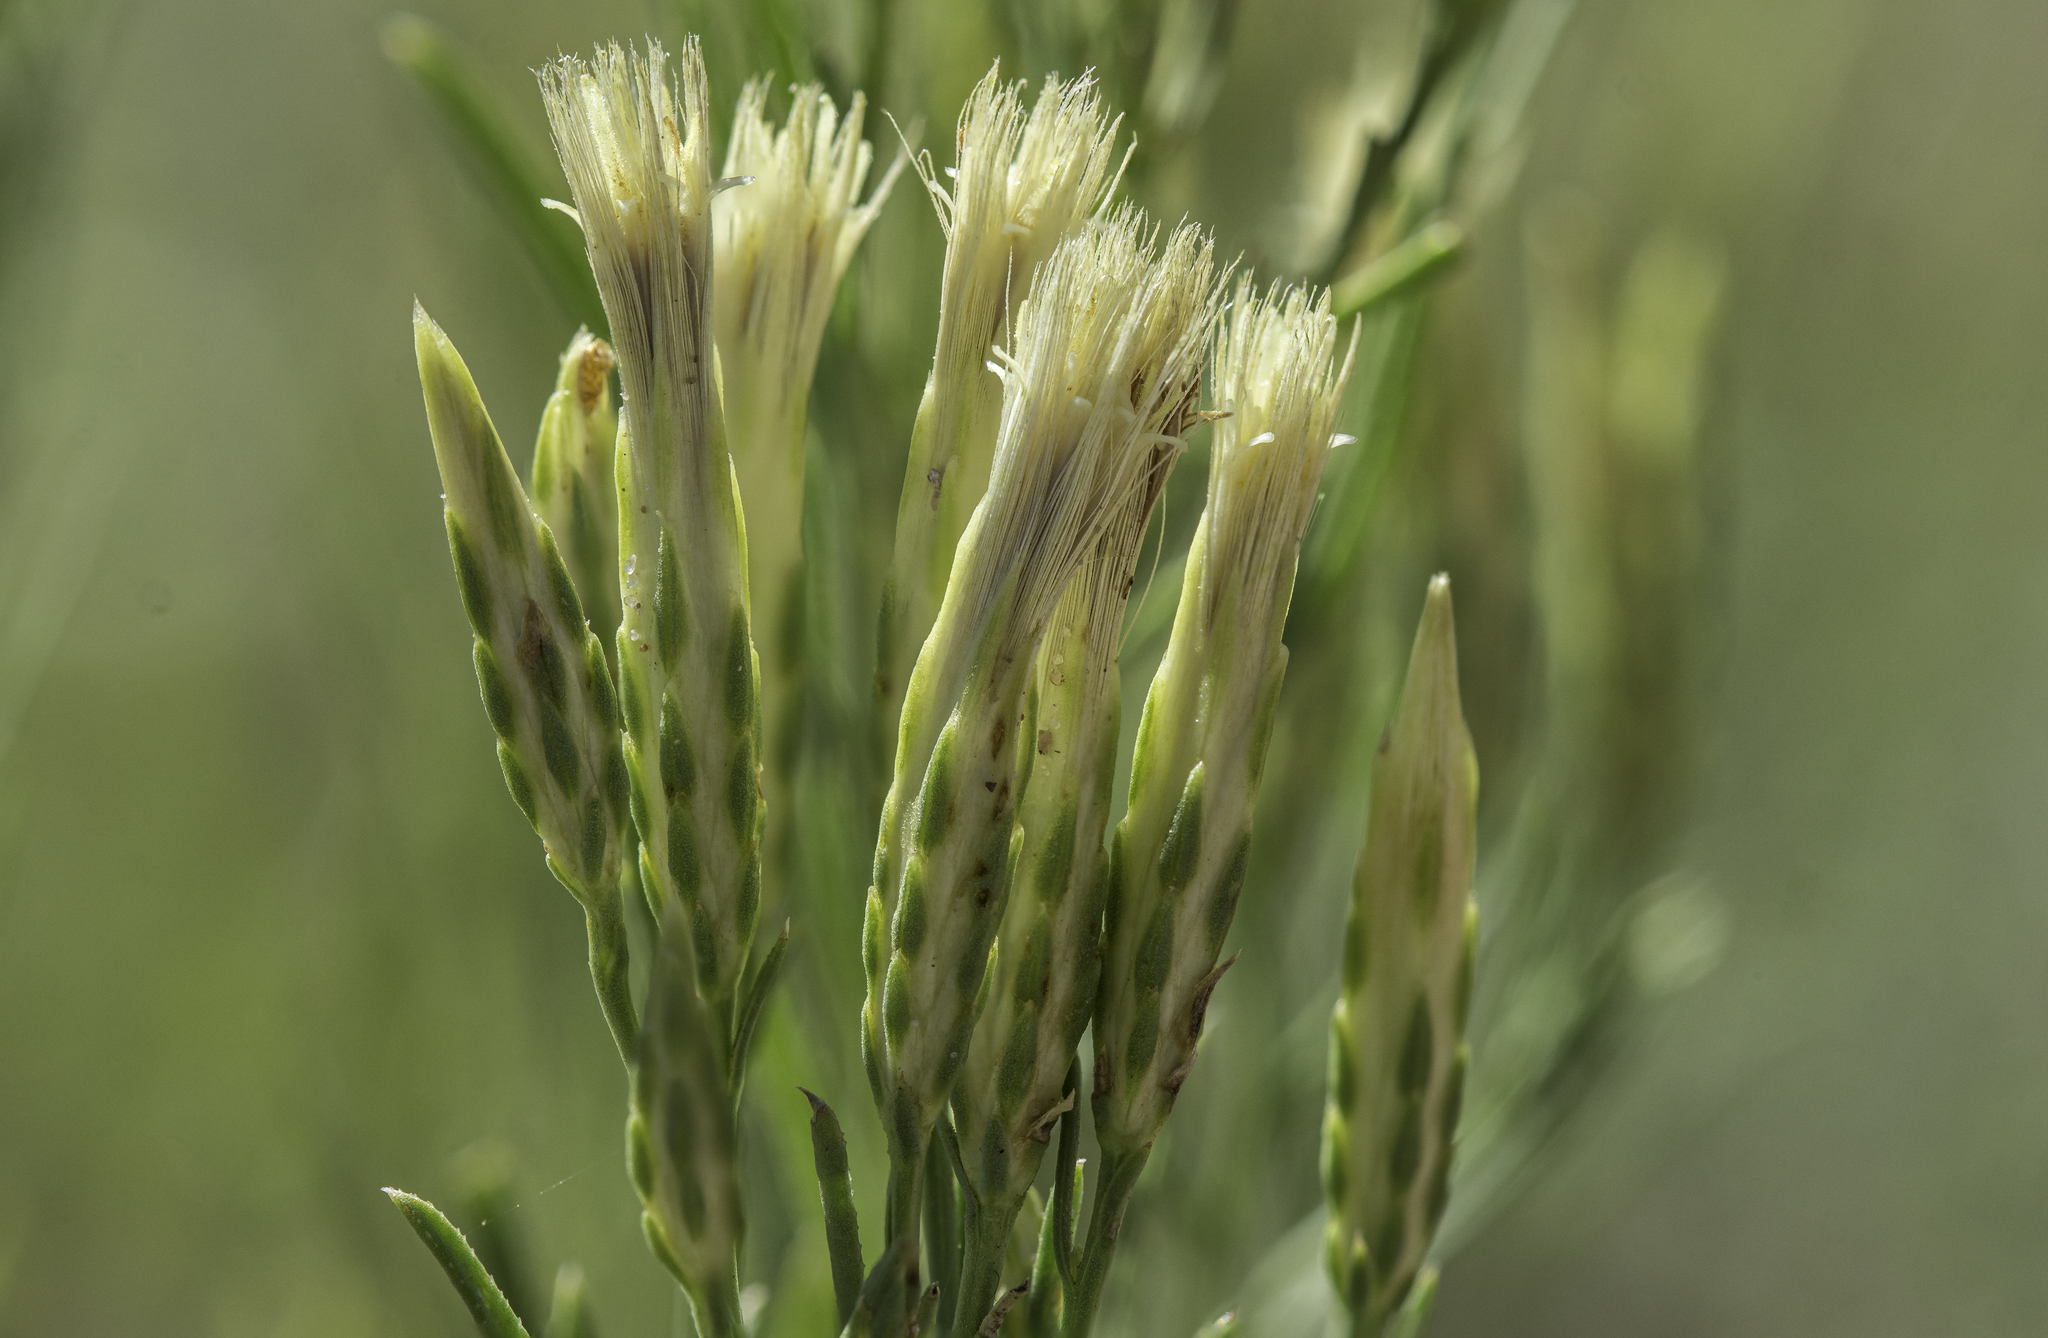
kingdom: Plantae
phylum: Tracheophyta
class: Magnoliopsida
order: Asterales
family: Asteraceae
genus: Lorandersonia
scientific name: Lorandersonia baileyi
